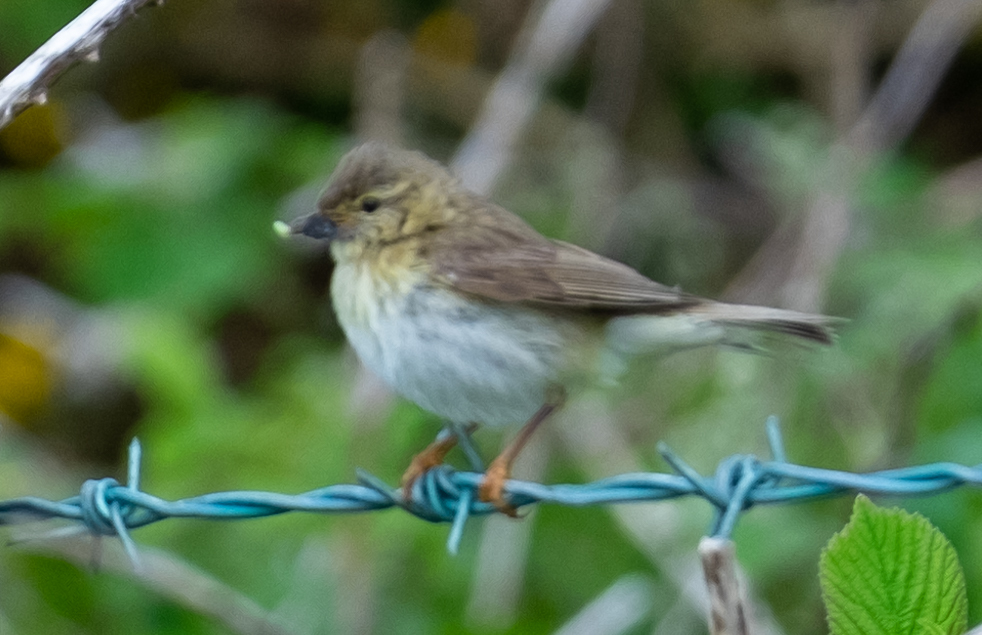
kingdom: Animalia
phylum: Chordata
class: Aves
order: Passeriformes
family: Phylloscopidae
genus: Phylloscopus
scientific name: Phylloscopus trochilus
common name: Willow warbler
